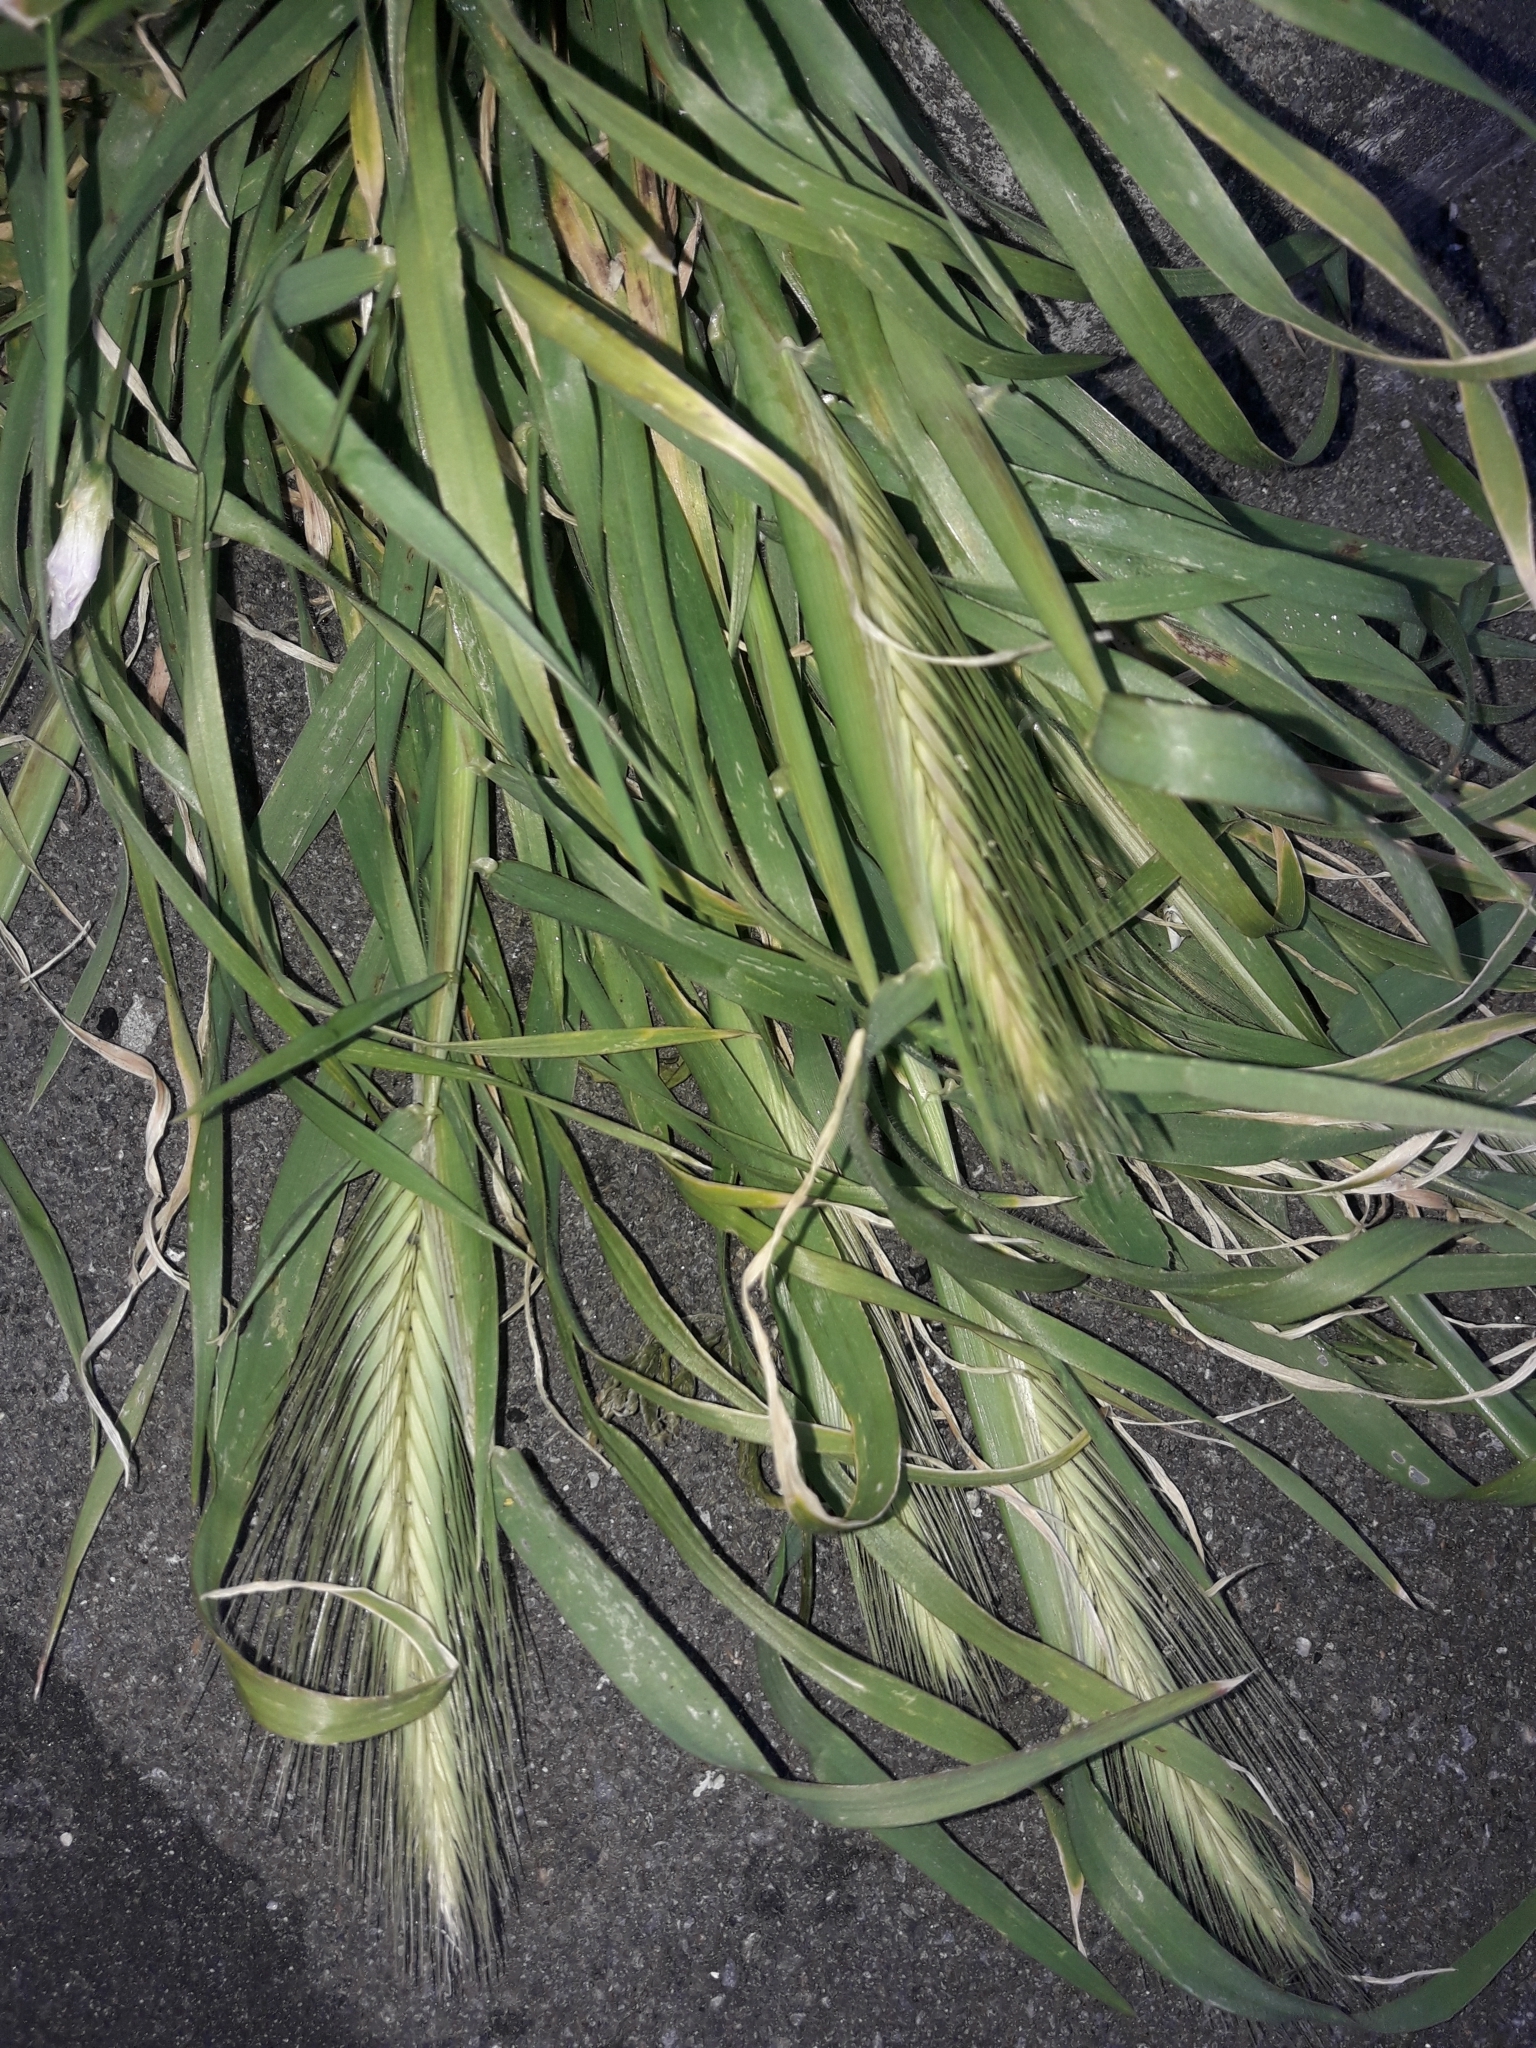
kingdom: Plantae
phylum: Tracheophyta
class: Liliopsida
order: Poales
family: Poaceae
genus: Hordeum
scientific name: Hordeum murinum
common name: Wall barley
